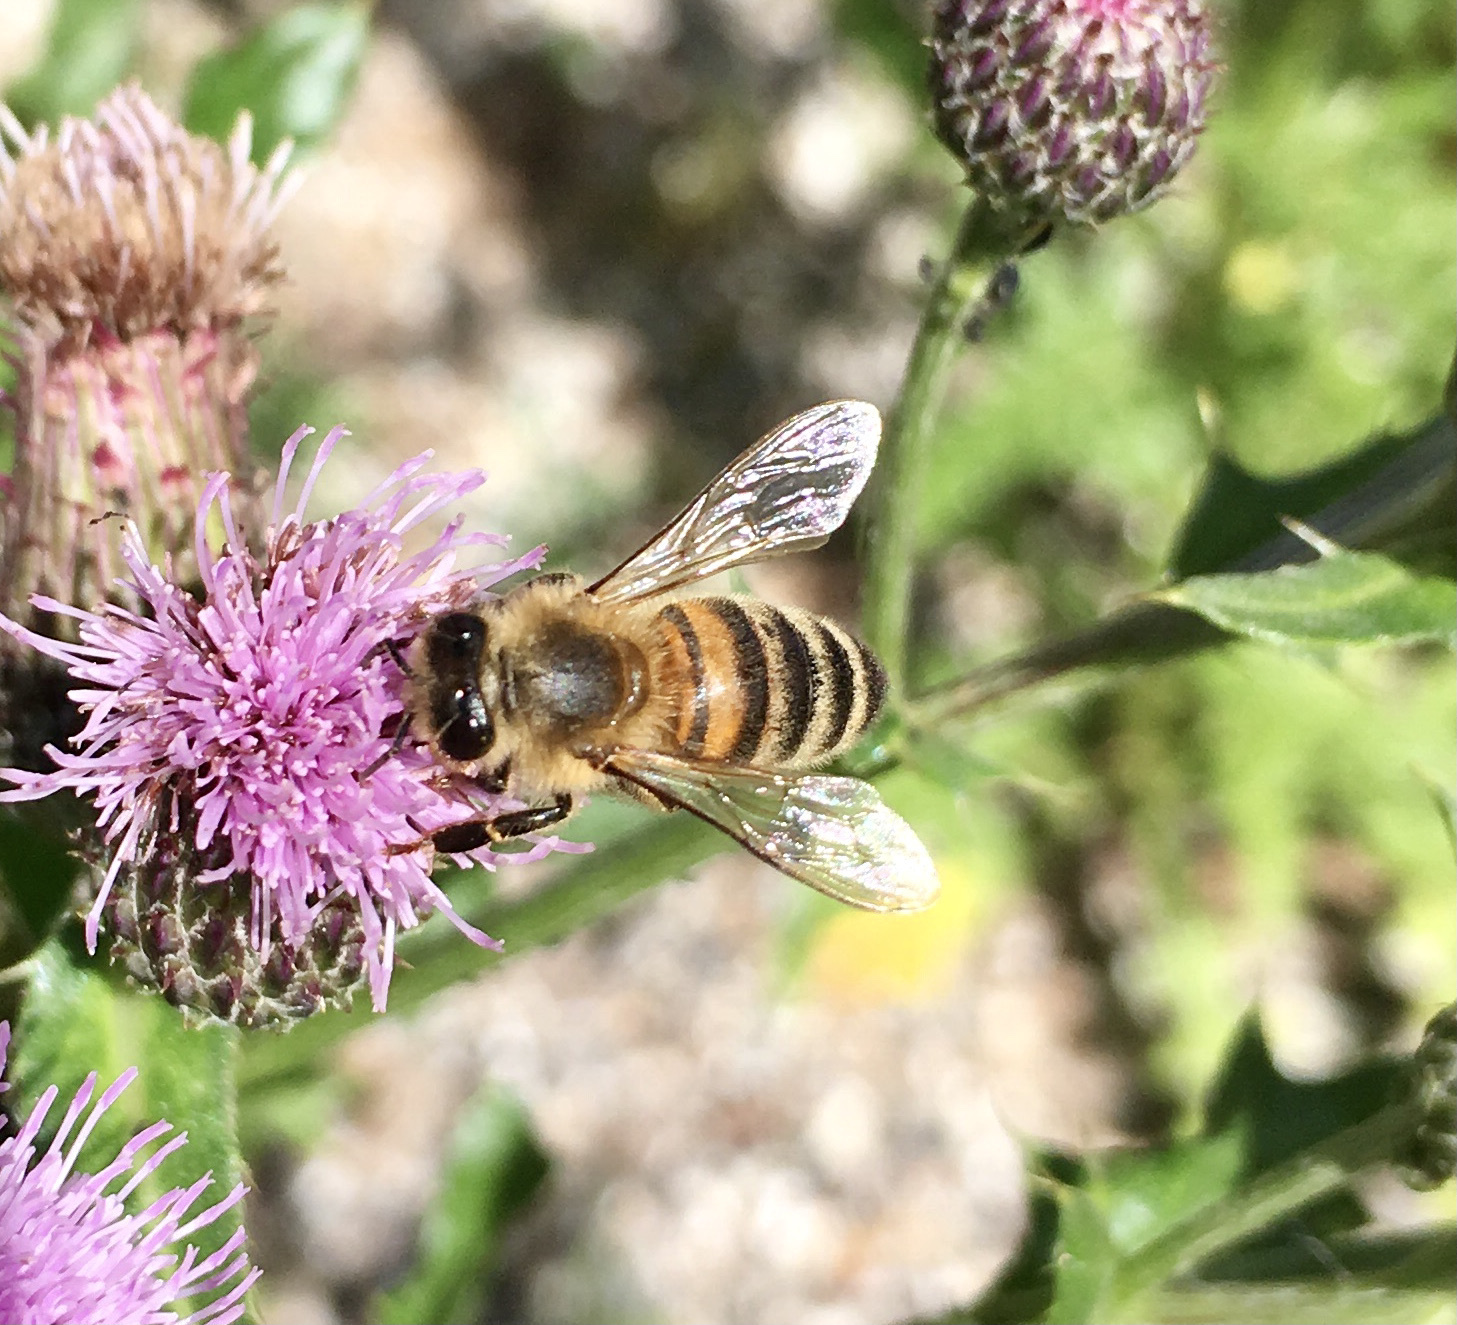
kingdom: Animalia
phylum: Arthropoda
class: Insecta
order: Hymenoptera
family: Apidae
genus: Apis
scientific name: Apis mellifera
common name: Honey bee
